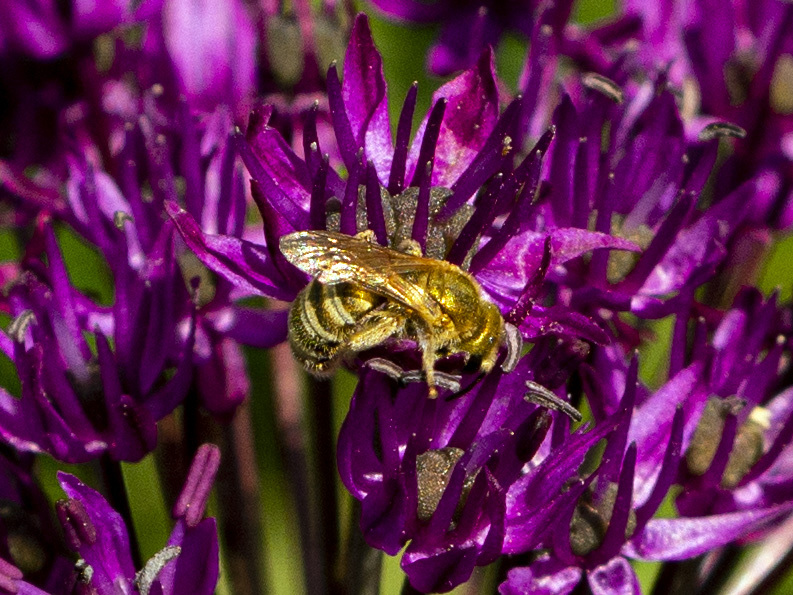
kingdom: Animalia
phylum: Arthropoda
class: Insecta
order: Hymenoptera
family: Halictidae
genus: Halictus
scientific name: Halictus subauratus
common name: Golden furrow bee
